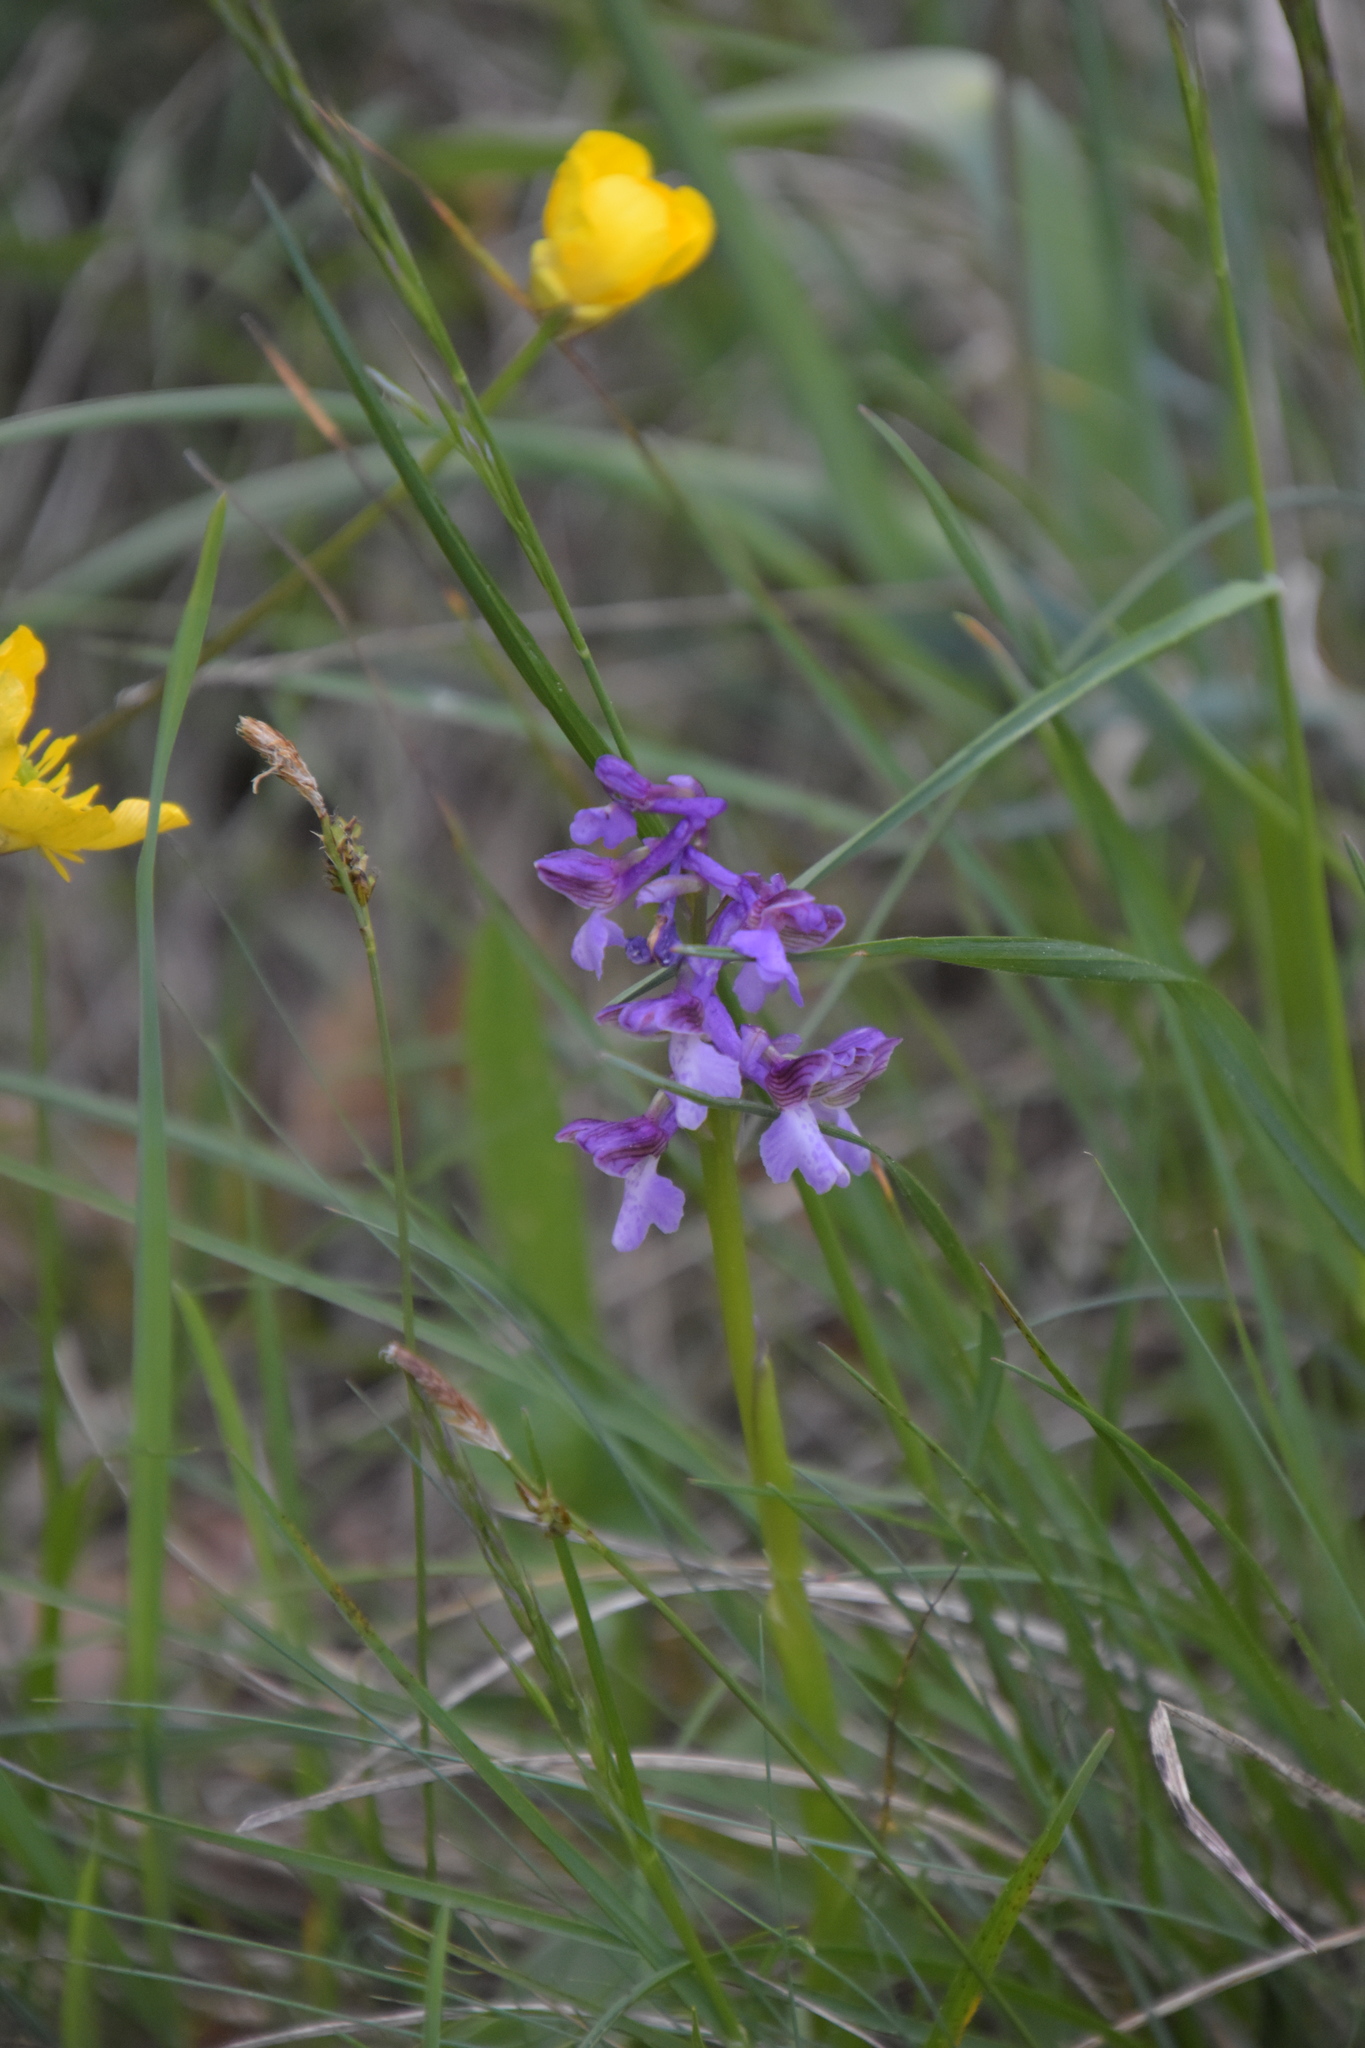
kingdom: Plantae
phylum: Tracheophyta
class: Liliopsida
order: Asparagales
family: Orchidaceae
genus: Anacamptis
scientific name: Anacamptis morio
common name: Green-winged orchid
